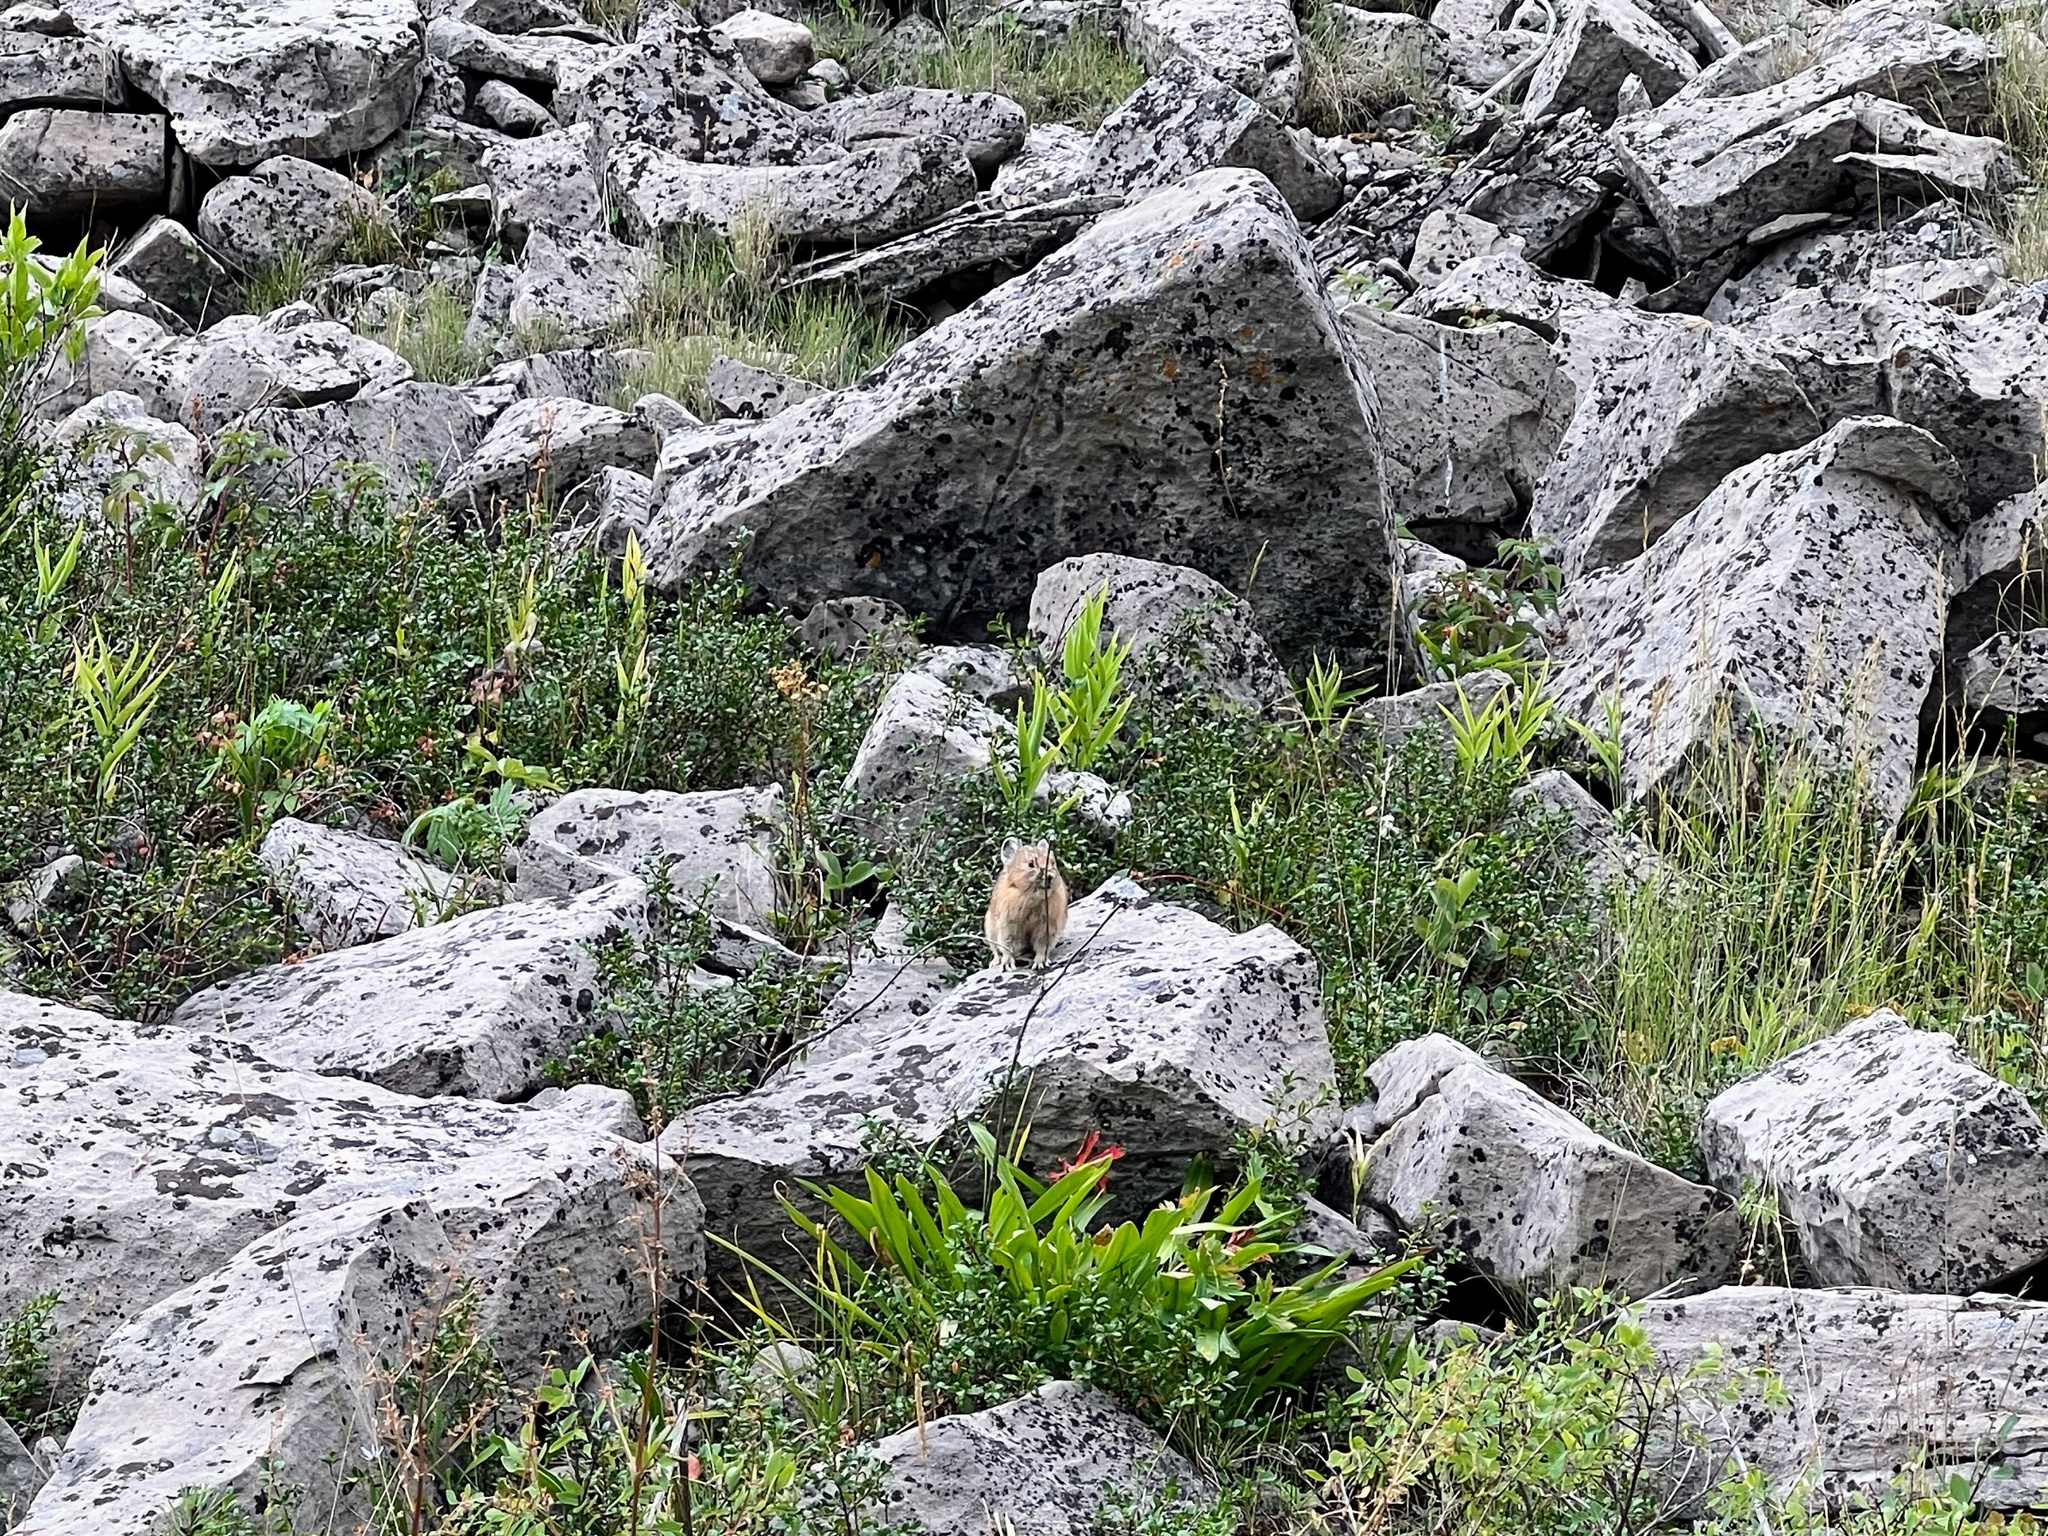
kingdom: Animalia
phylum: Chordata
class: Mammalia
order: Lagomorpha
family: Ochotonidae
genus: Ochotona
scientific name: Ochotona princeps
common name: American pika
